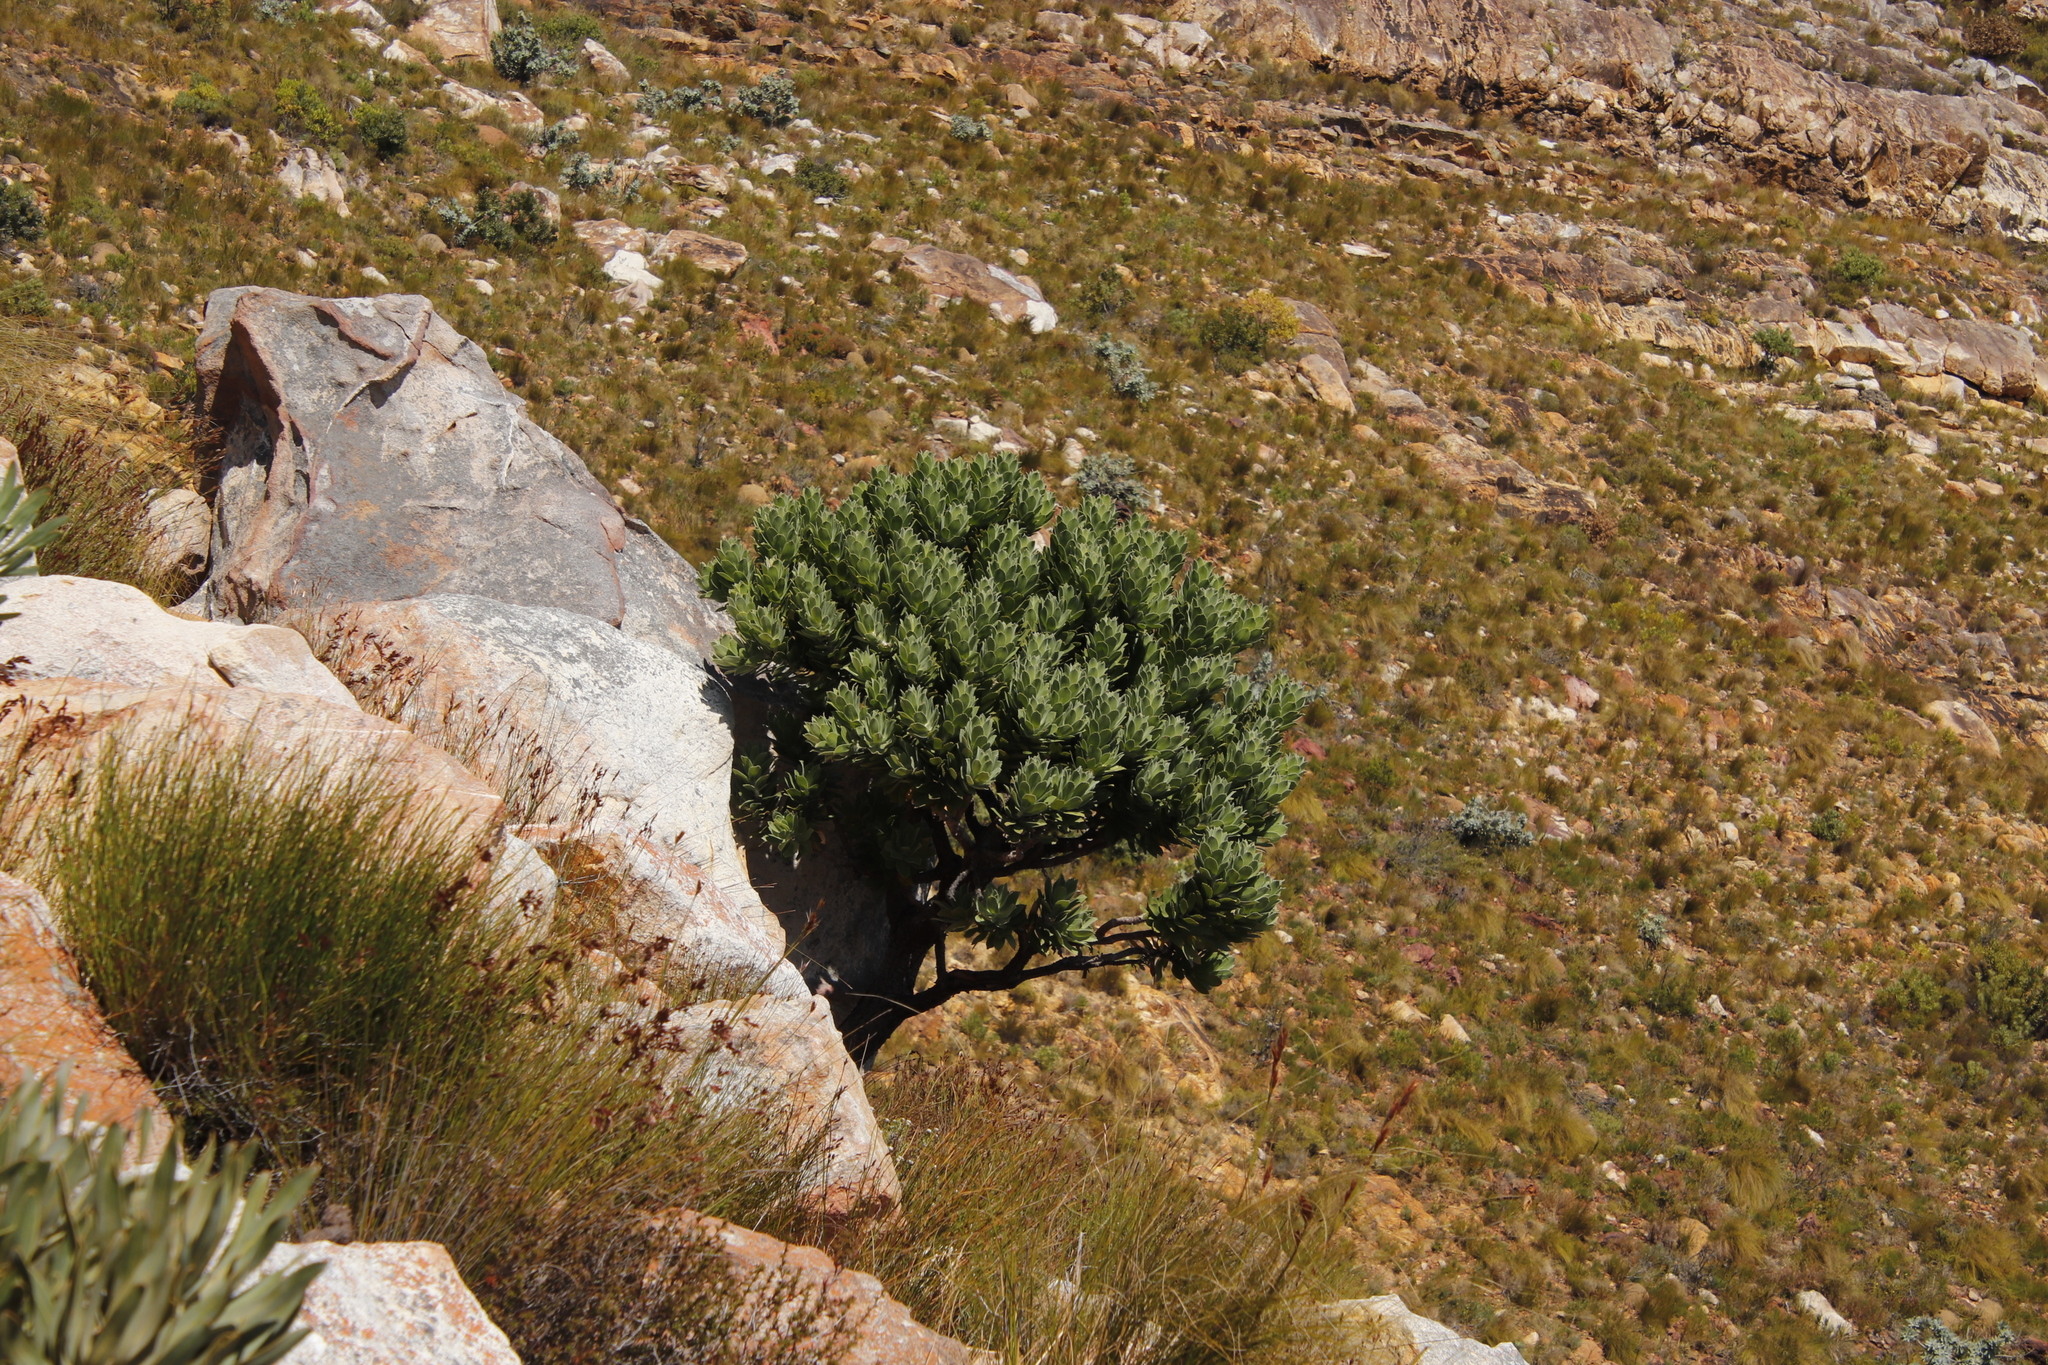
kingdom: Plantae
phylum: Tracheophyta
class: Magnoliopsida
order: Proteales
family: Proteaceae
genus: Leucospermum
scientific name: Leucospermum conocarpodendron
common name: Tree pincushion
